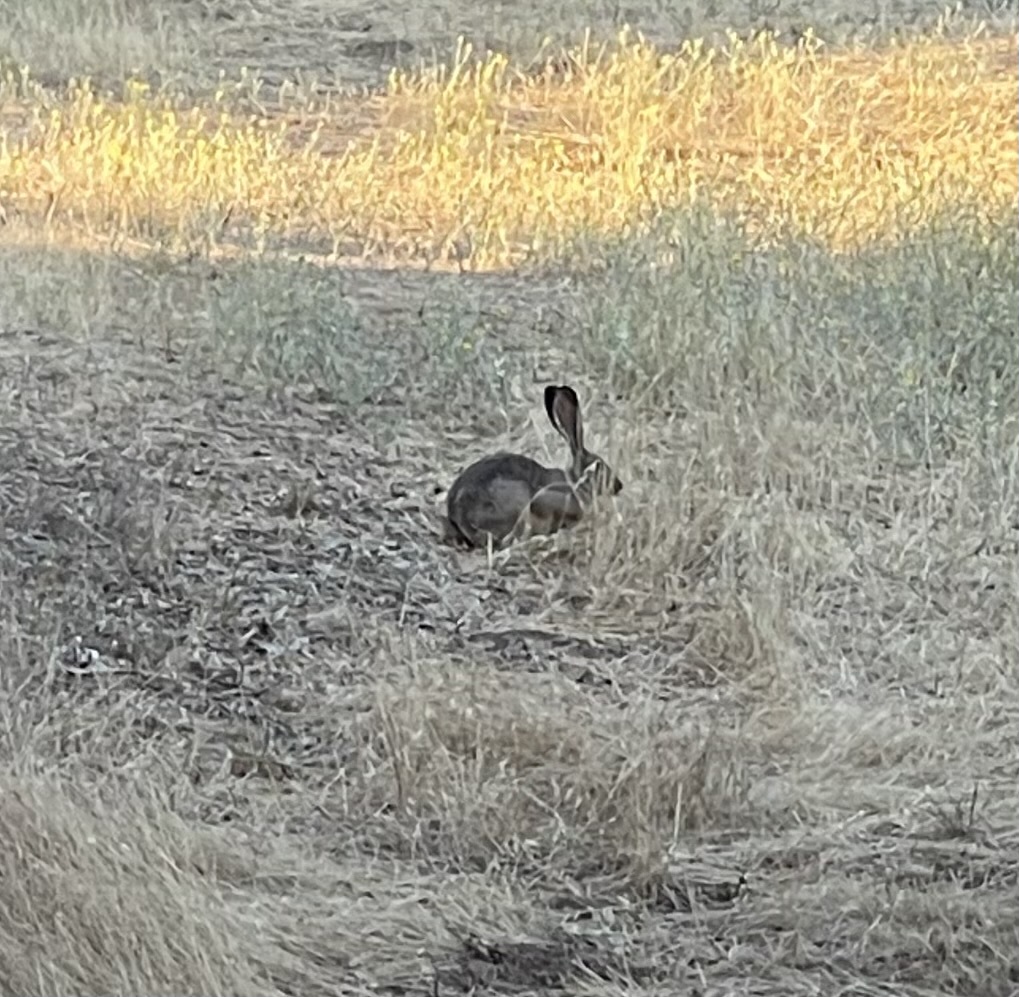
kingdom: Animalia
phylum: Chordata
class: Mammalia
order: Lagomorpha
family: Leporidae
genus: Lepus
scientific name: Lepus californicus
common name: Black-tailed jackrabbit
